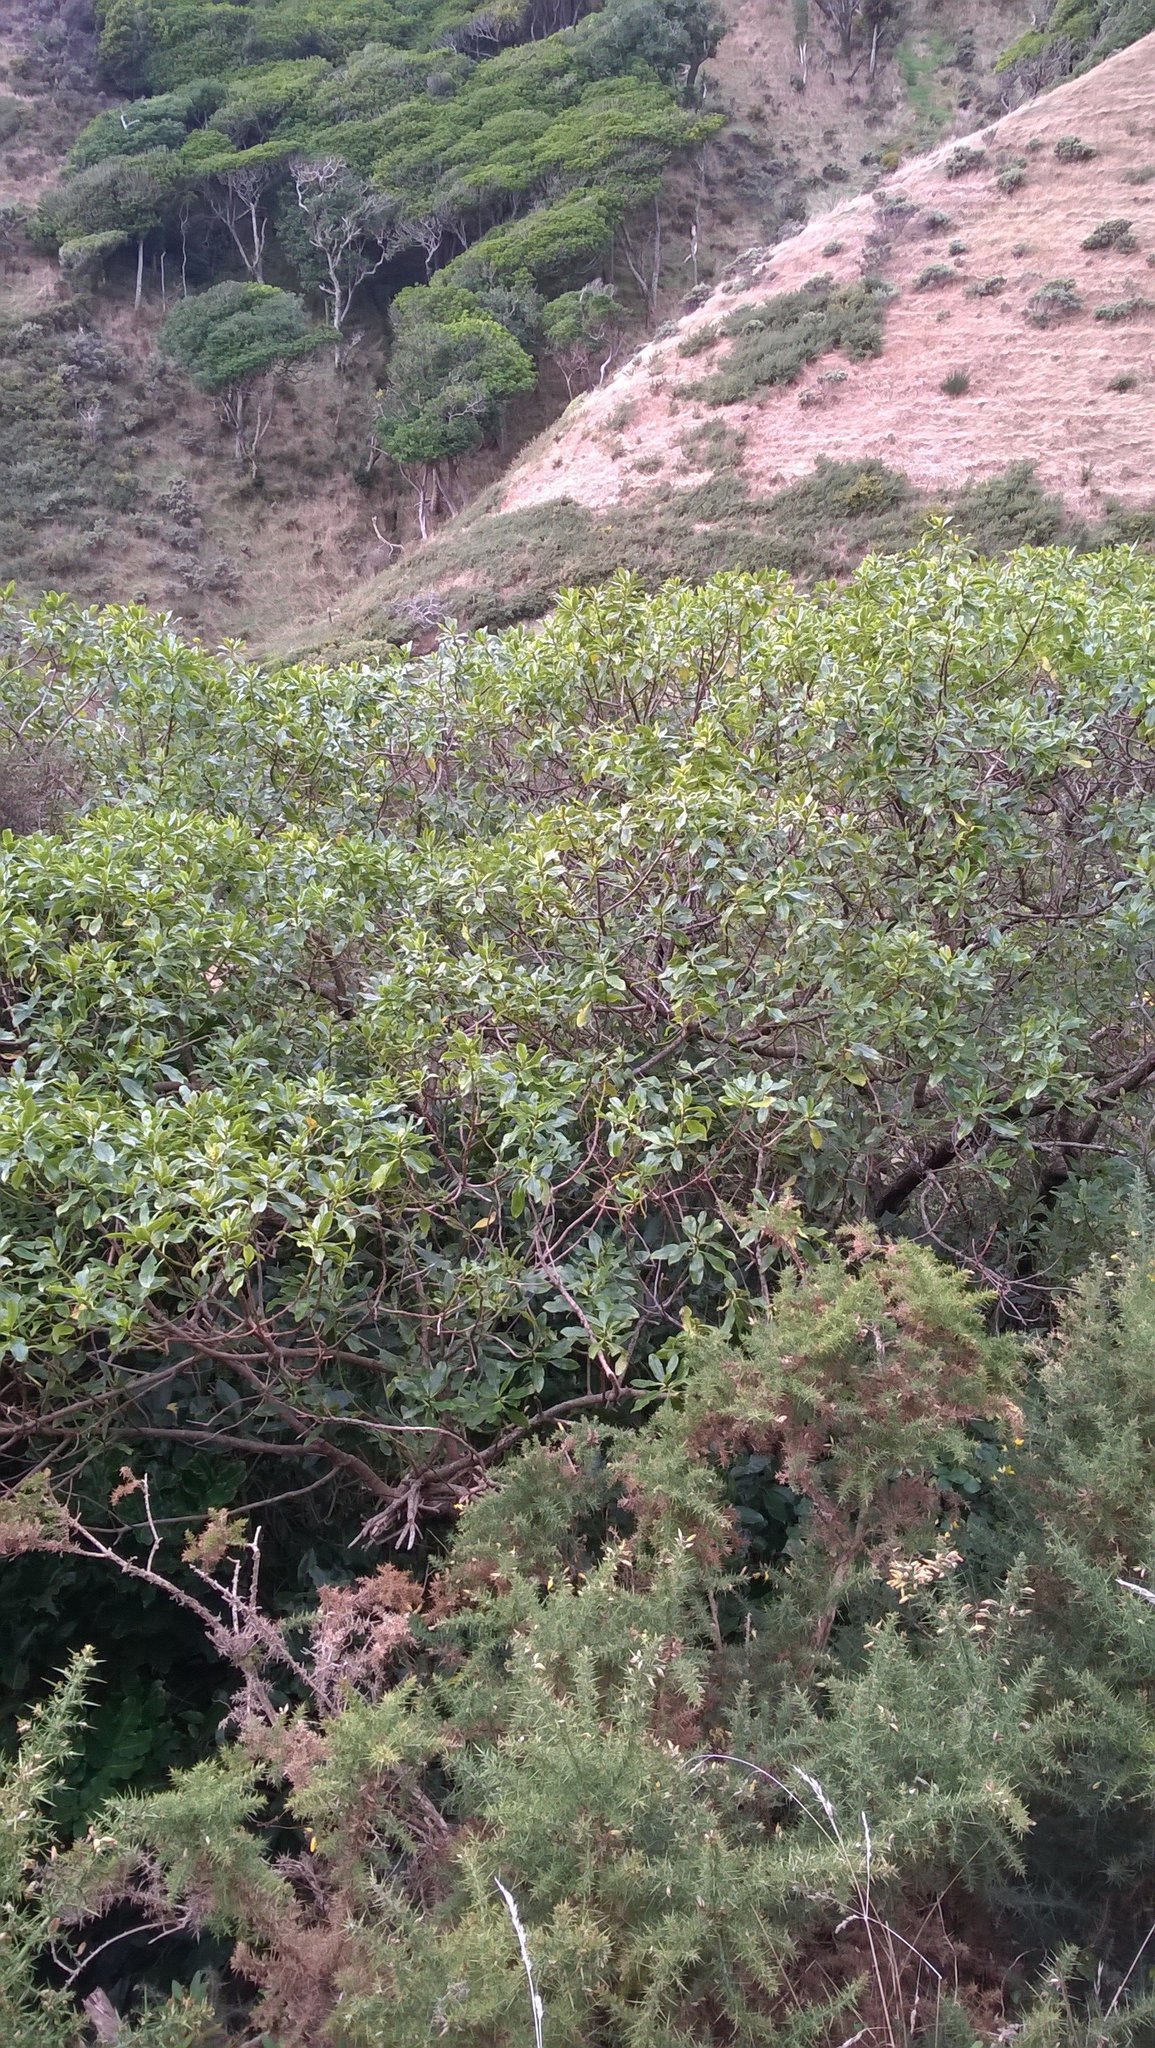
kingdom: Plantae
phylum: Tracheophyta
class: Magnoliopsida
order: Lamiales
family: Scrophulariaceae
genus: Myoporum
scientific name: Myoporum laetum
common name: Ngaio tree
